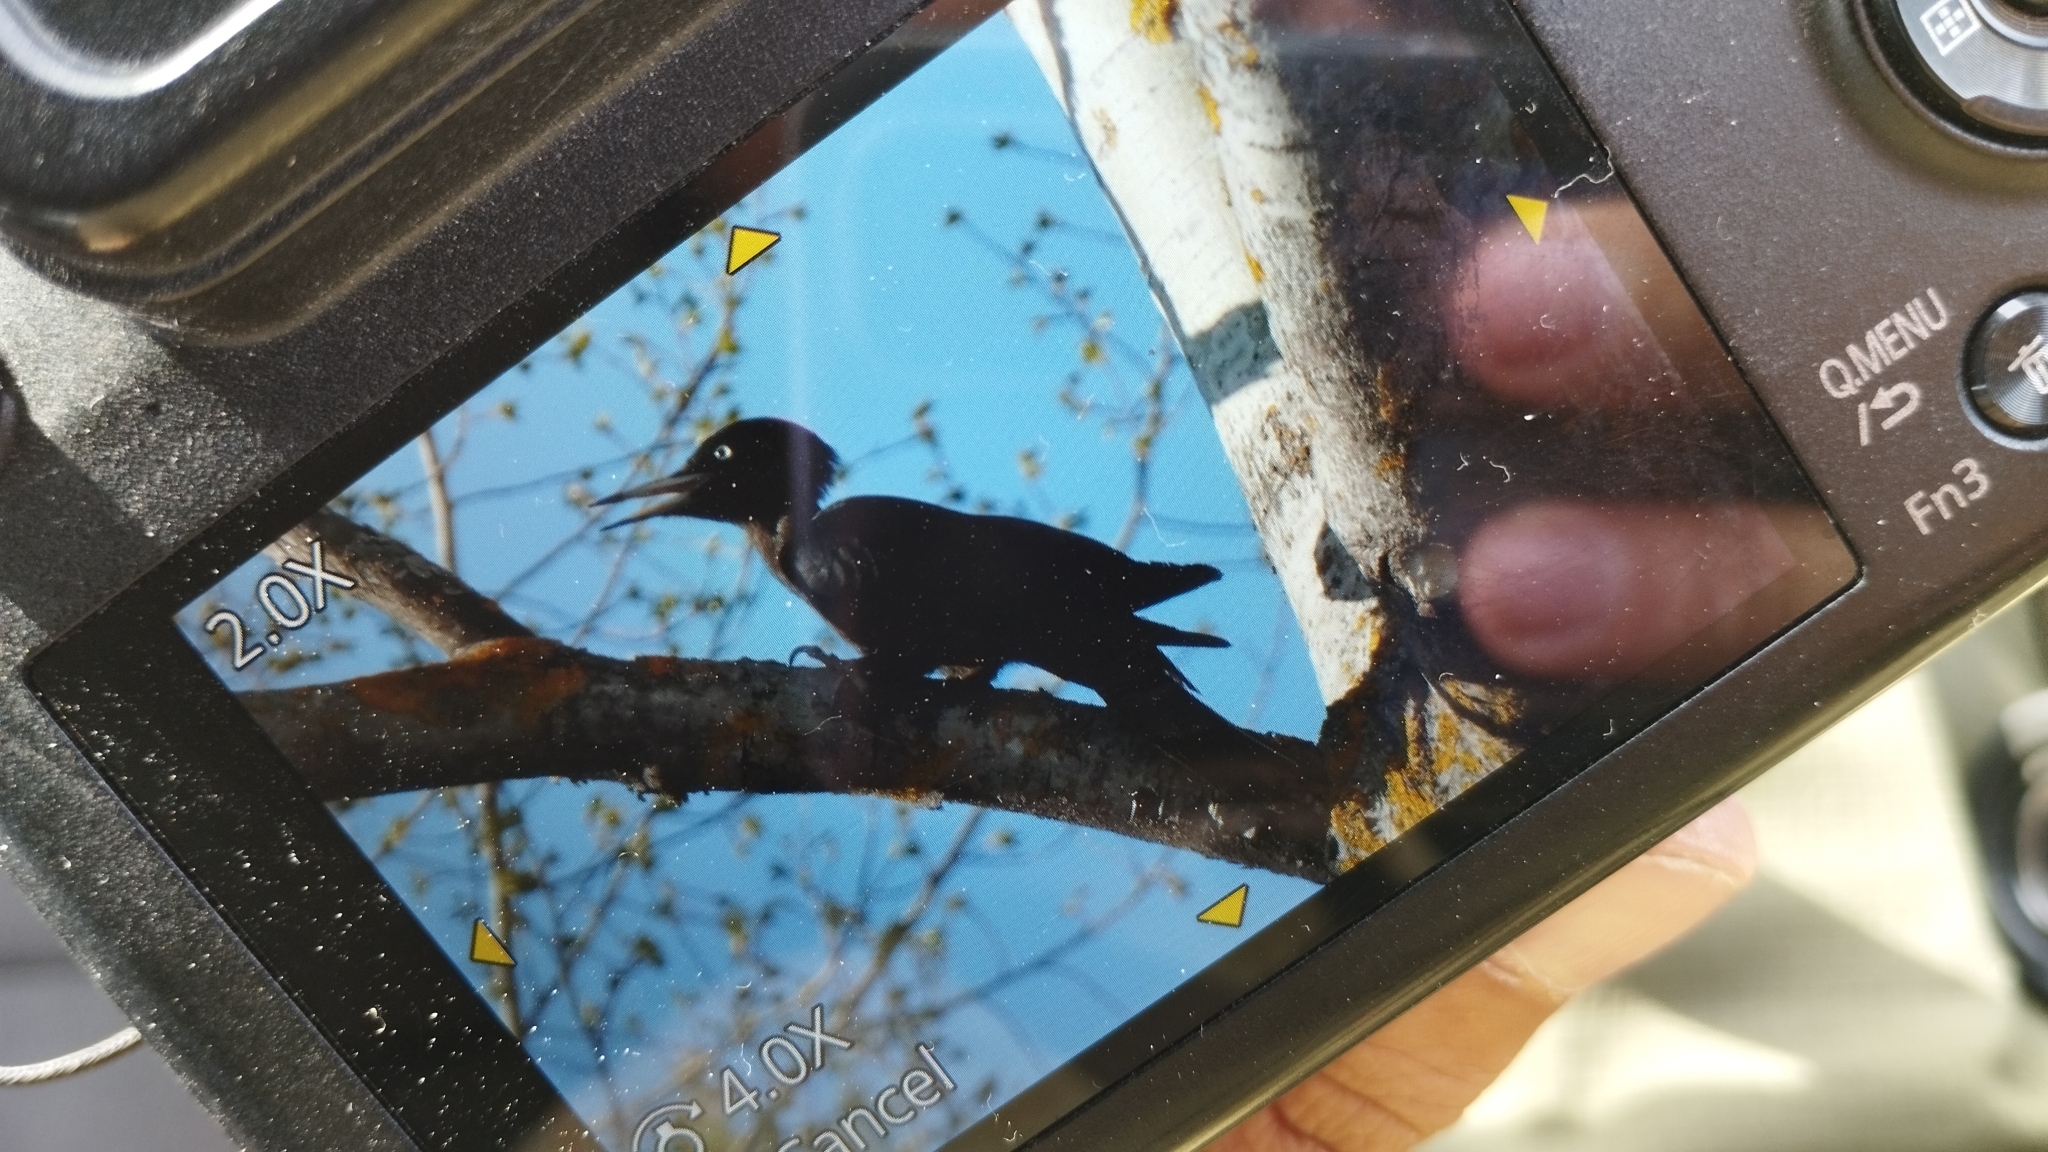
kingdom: Animalia
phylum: Chordata
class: Aves
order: Piciformes
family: Picidae
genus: Dryocopus
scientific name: Dryocopus martius
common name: Black woodpecker
